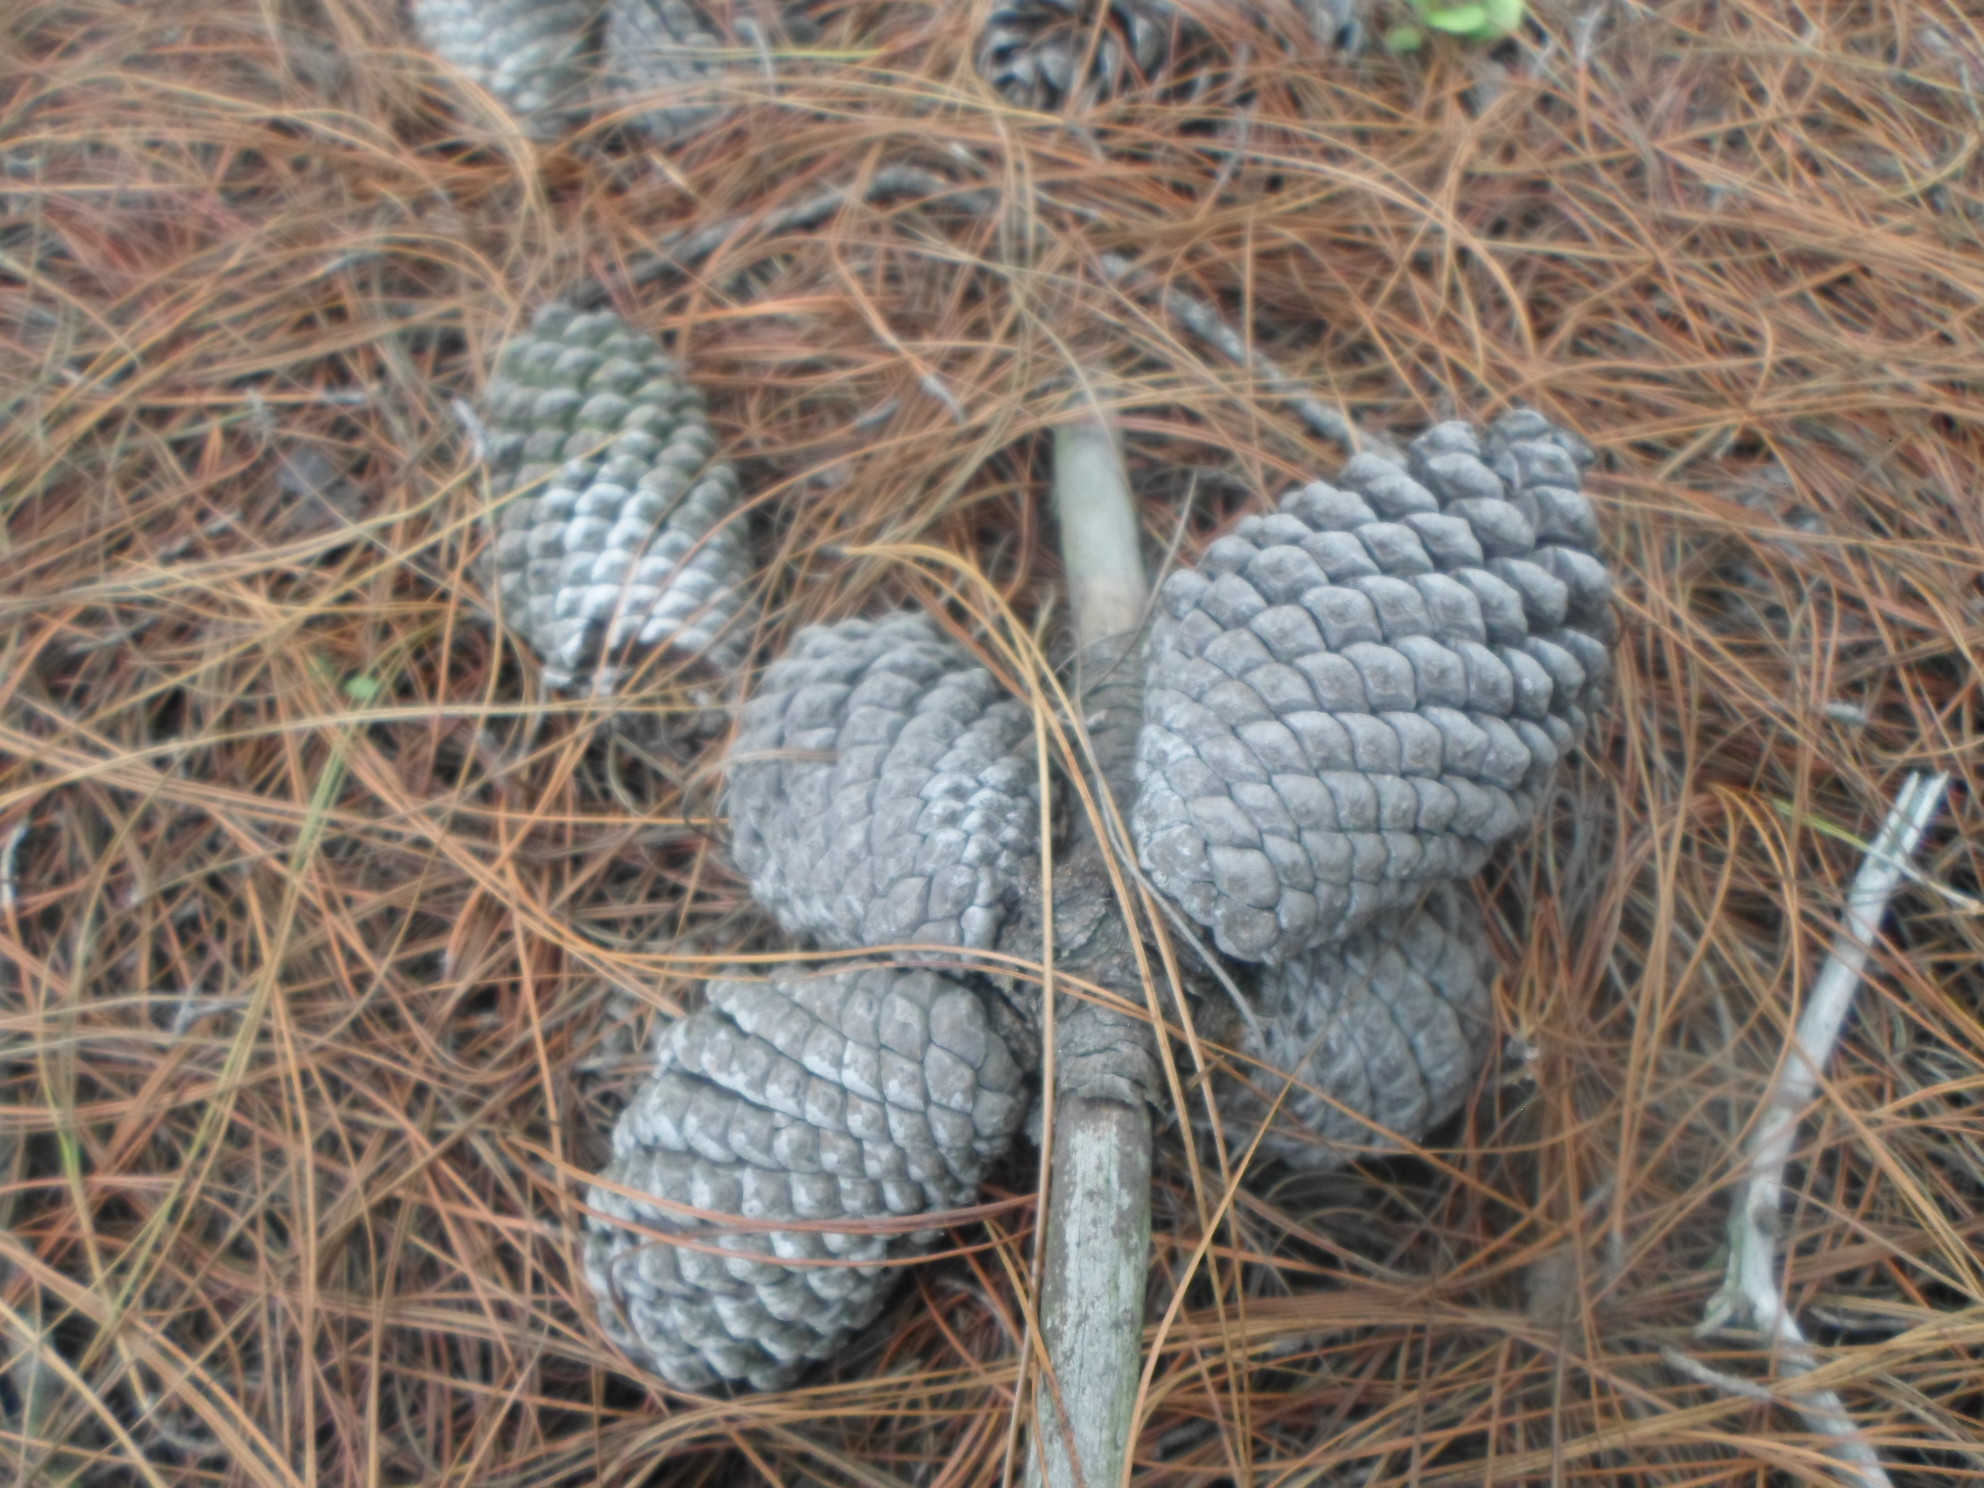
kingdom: Plantae
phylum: Tracheophyta
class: Pinopsida
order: Pinales
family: Pinaceae
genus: Pinus
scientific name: Pinus patula
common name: Mexican weeping pine
